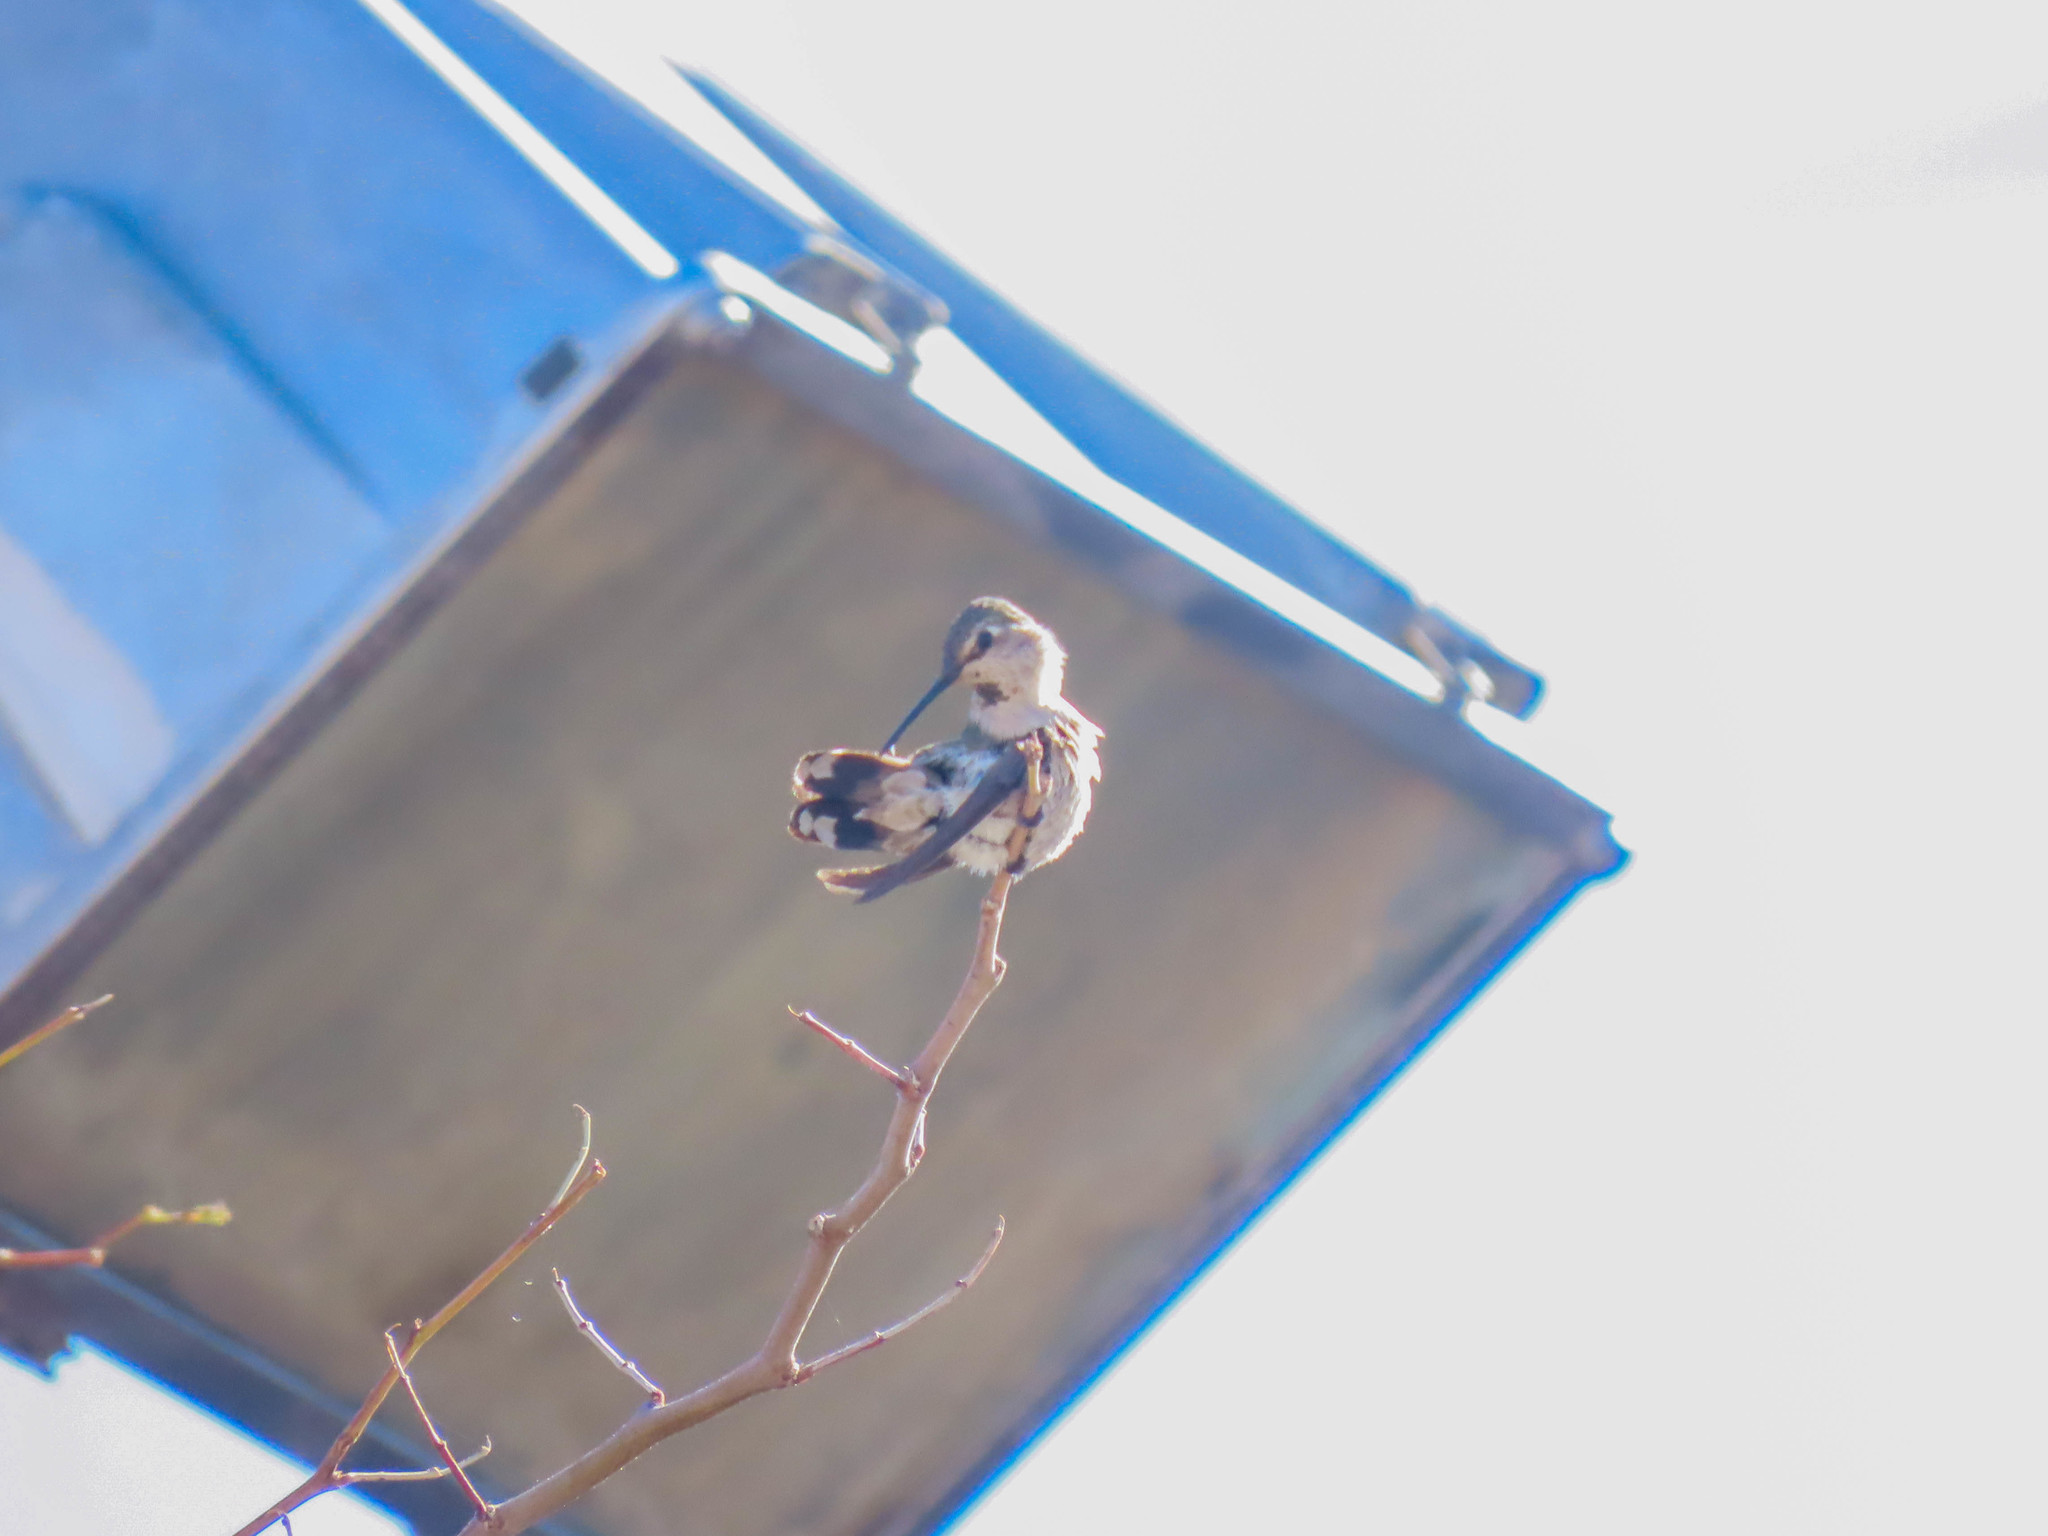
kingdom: Animalia
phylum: Chordata
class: Aves
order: Apodiformes
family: Trochilidae
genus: Calypte
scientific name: Calypte anna
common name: Anna's hummingbird
